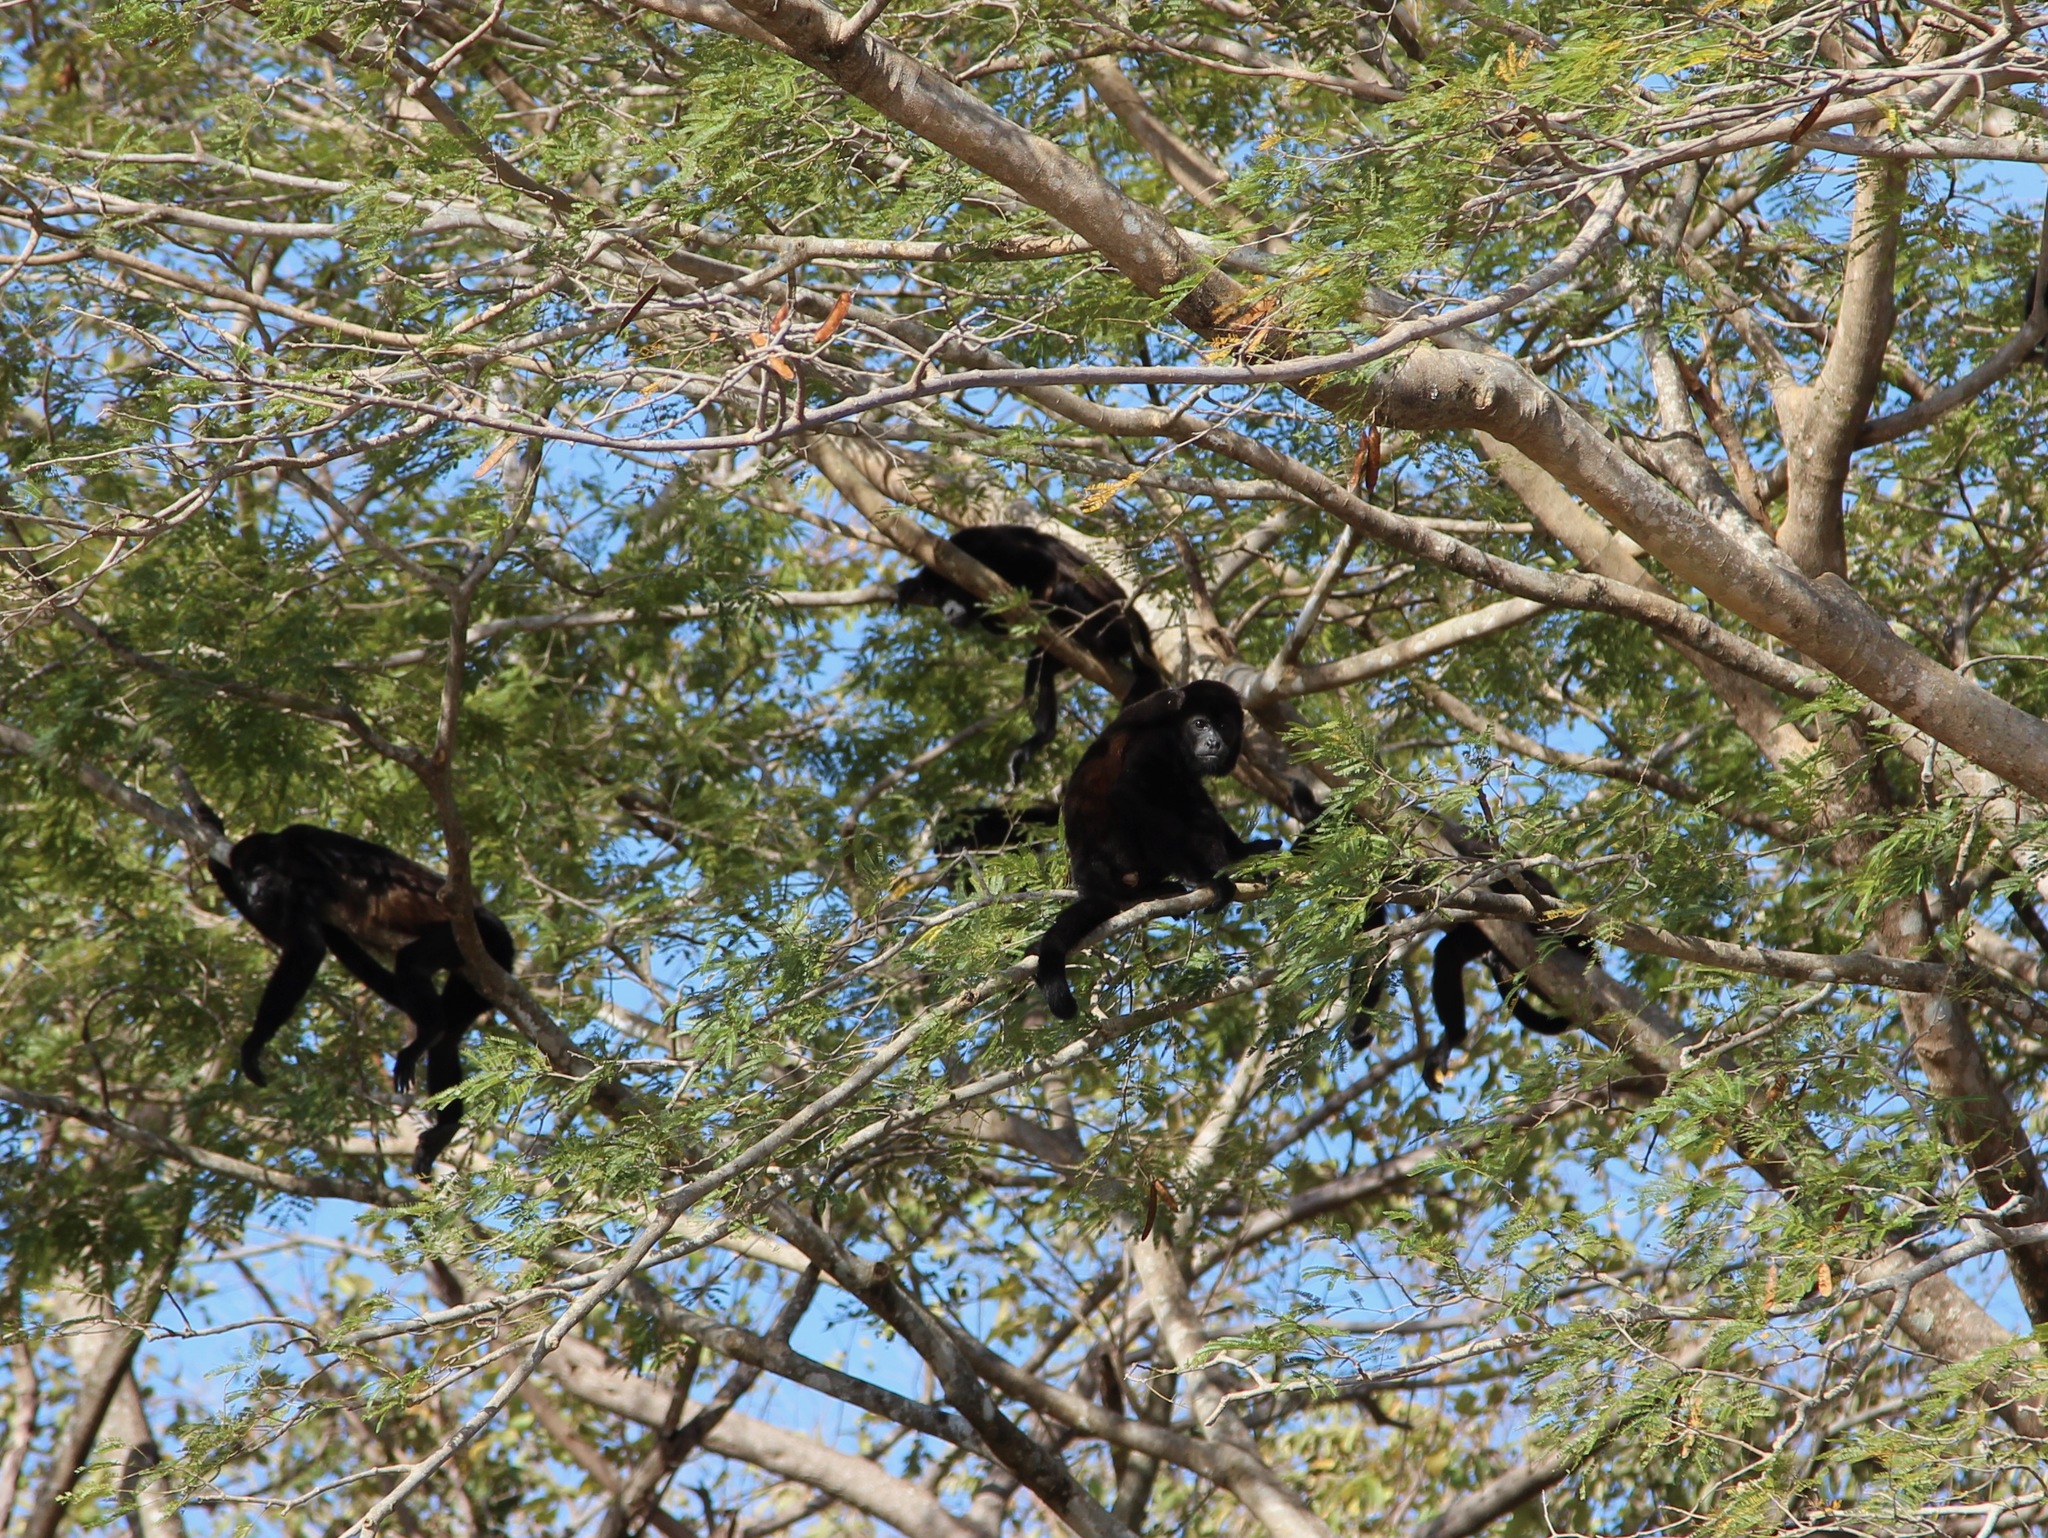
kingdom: Animalia
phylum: Chordata
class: Mammalia
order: Primates
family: Atelidae
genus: Alouatta
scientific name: Alouatta palliata
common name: Mantled howler
